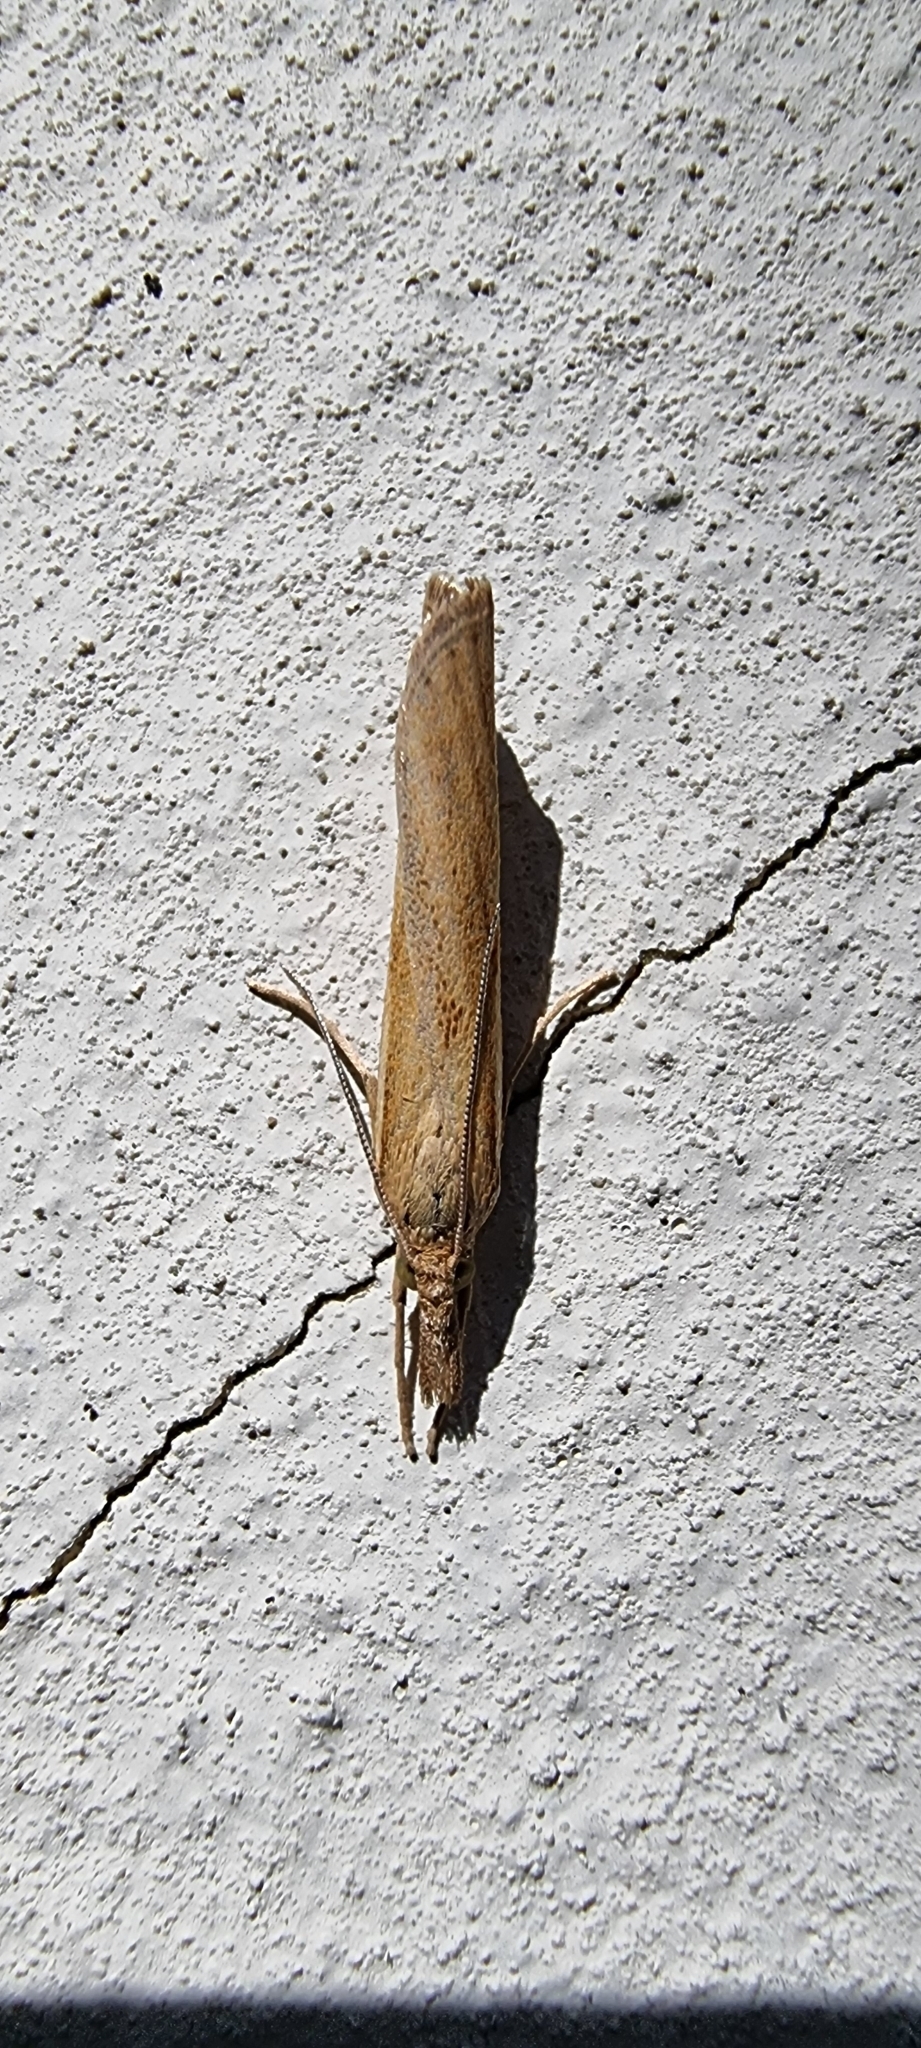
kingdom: Animalia
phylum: Arthropoda
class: Insecta
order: Lepidoptera
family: Crambidae
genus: Agriphila
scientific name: Agriphila tristellus
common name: Common grass-veneer
